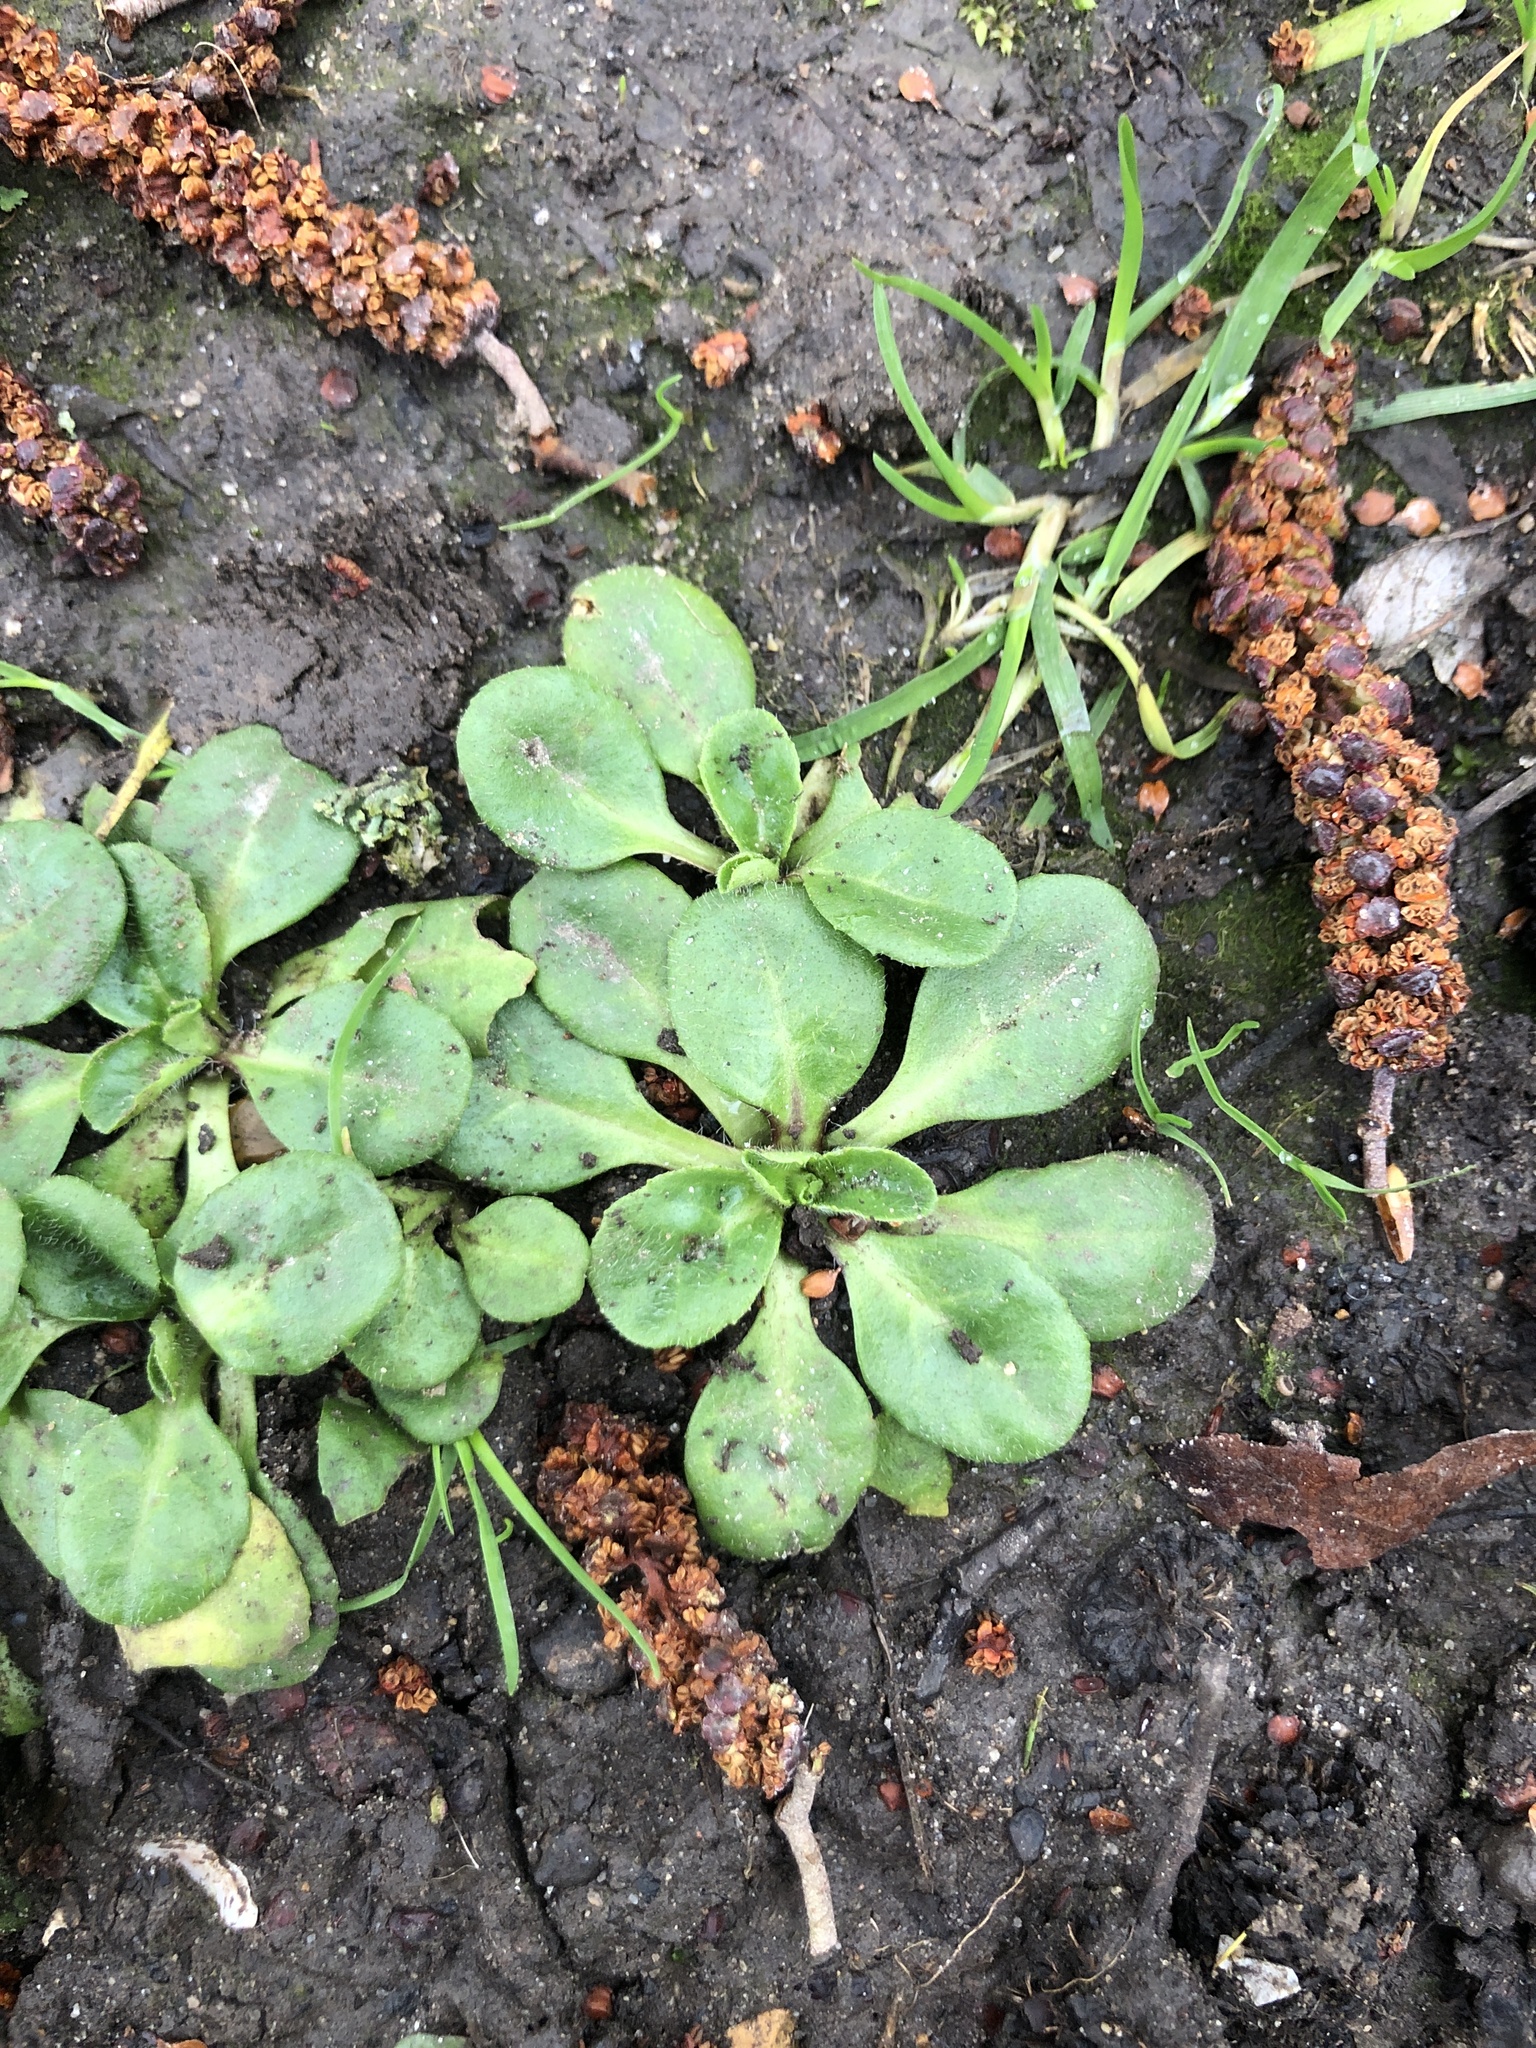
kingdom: Plantae
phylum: Tracheophyta
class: Magnoliopsida
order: Asterales
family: Asteraceae
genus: Bellis
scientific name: Bellis perennis
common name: Lawndaisy
